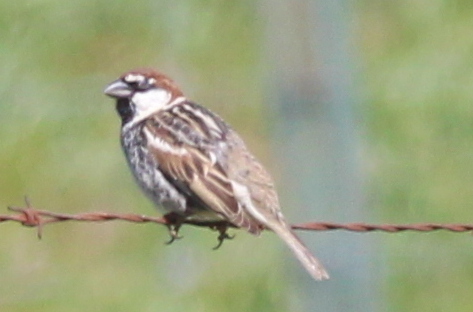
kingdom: Animalia
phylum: Chordata
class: Aves
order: Passeriformes
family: Passeridae
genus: Passer
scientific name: Passer hispaniolensis
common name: Spanish sparrow
